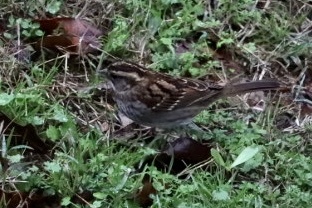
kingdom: Animalia
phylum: Chordata
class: Aves
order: Passeriformes
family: Passerellidae
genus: Zonotrichia
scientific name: Zonotrichia albicollis
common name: White-throated sparrow
